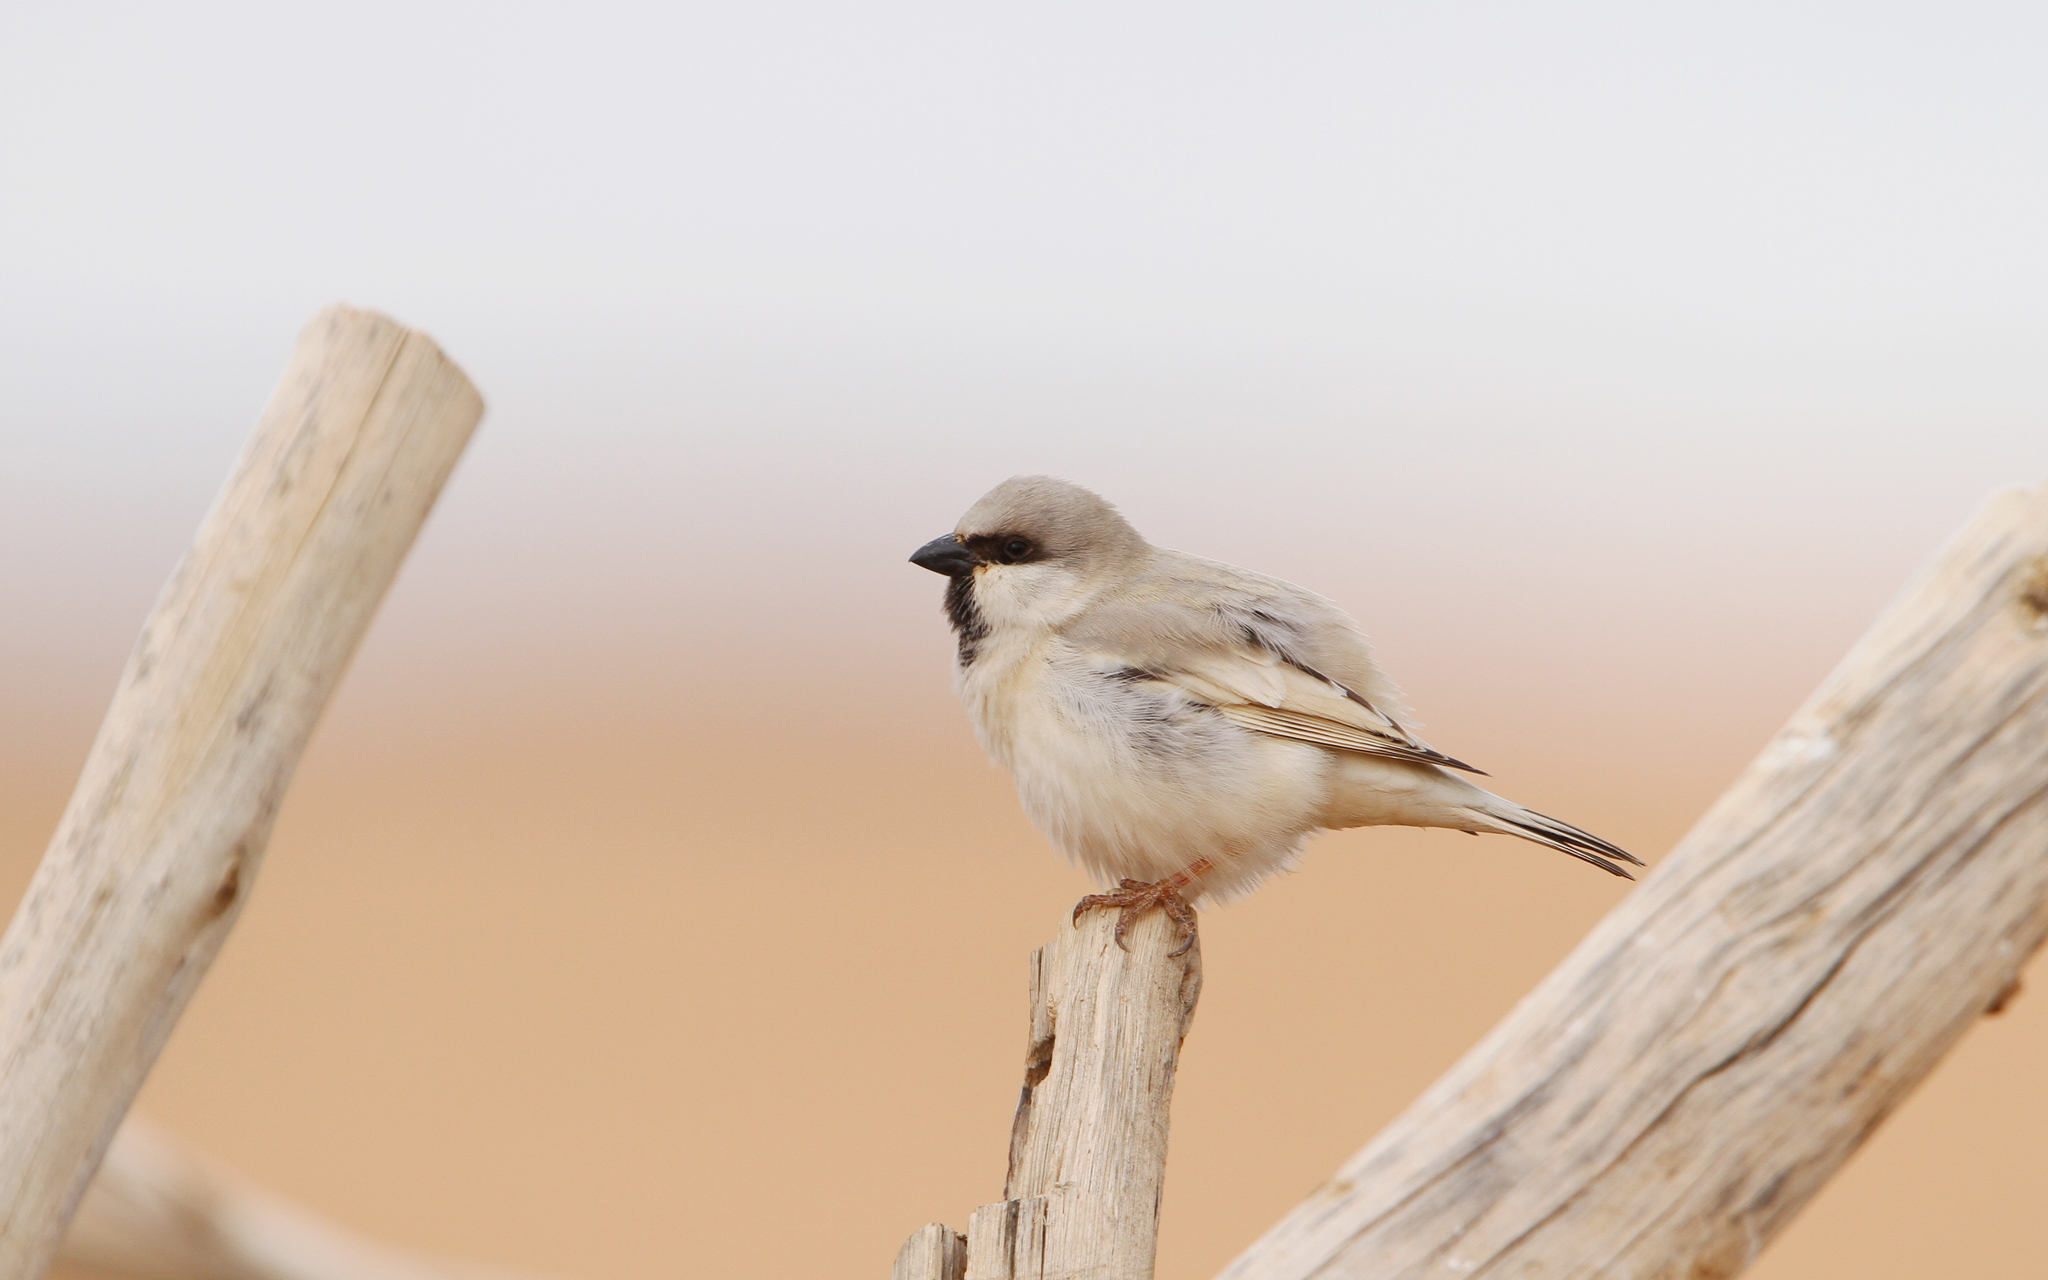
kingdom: Animalia
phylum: Chordata
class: Aves
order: Passeriformes
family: Passeridae
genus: Passer
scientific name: Passer simplex
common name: Desert sparrow
